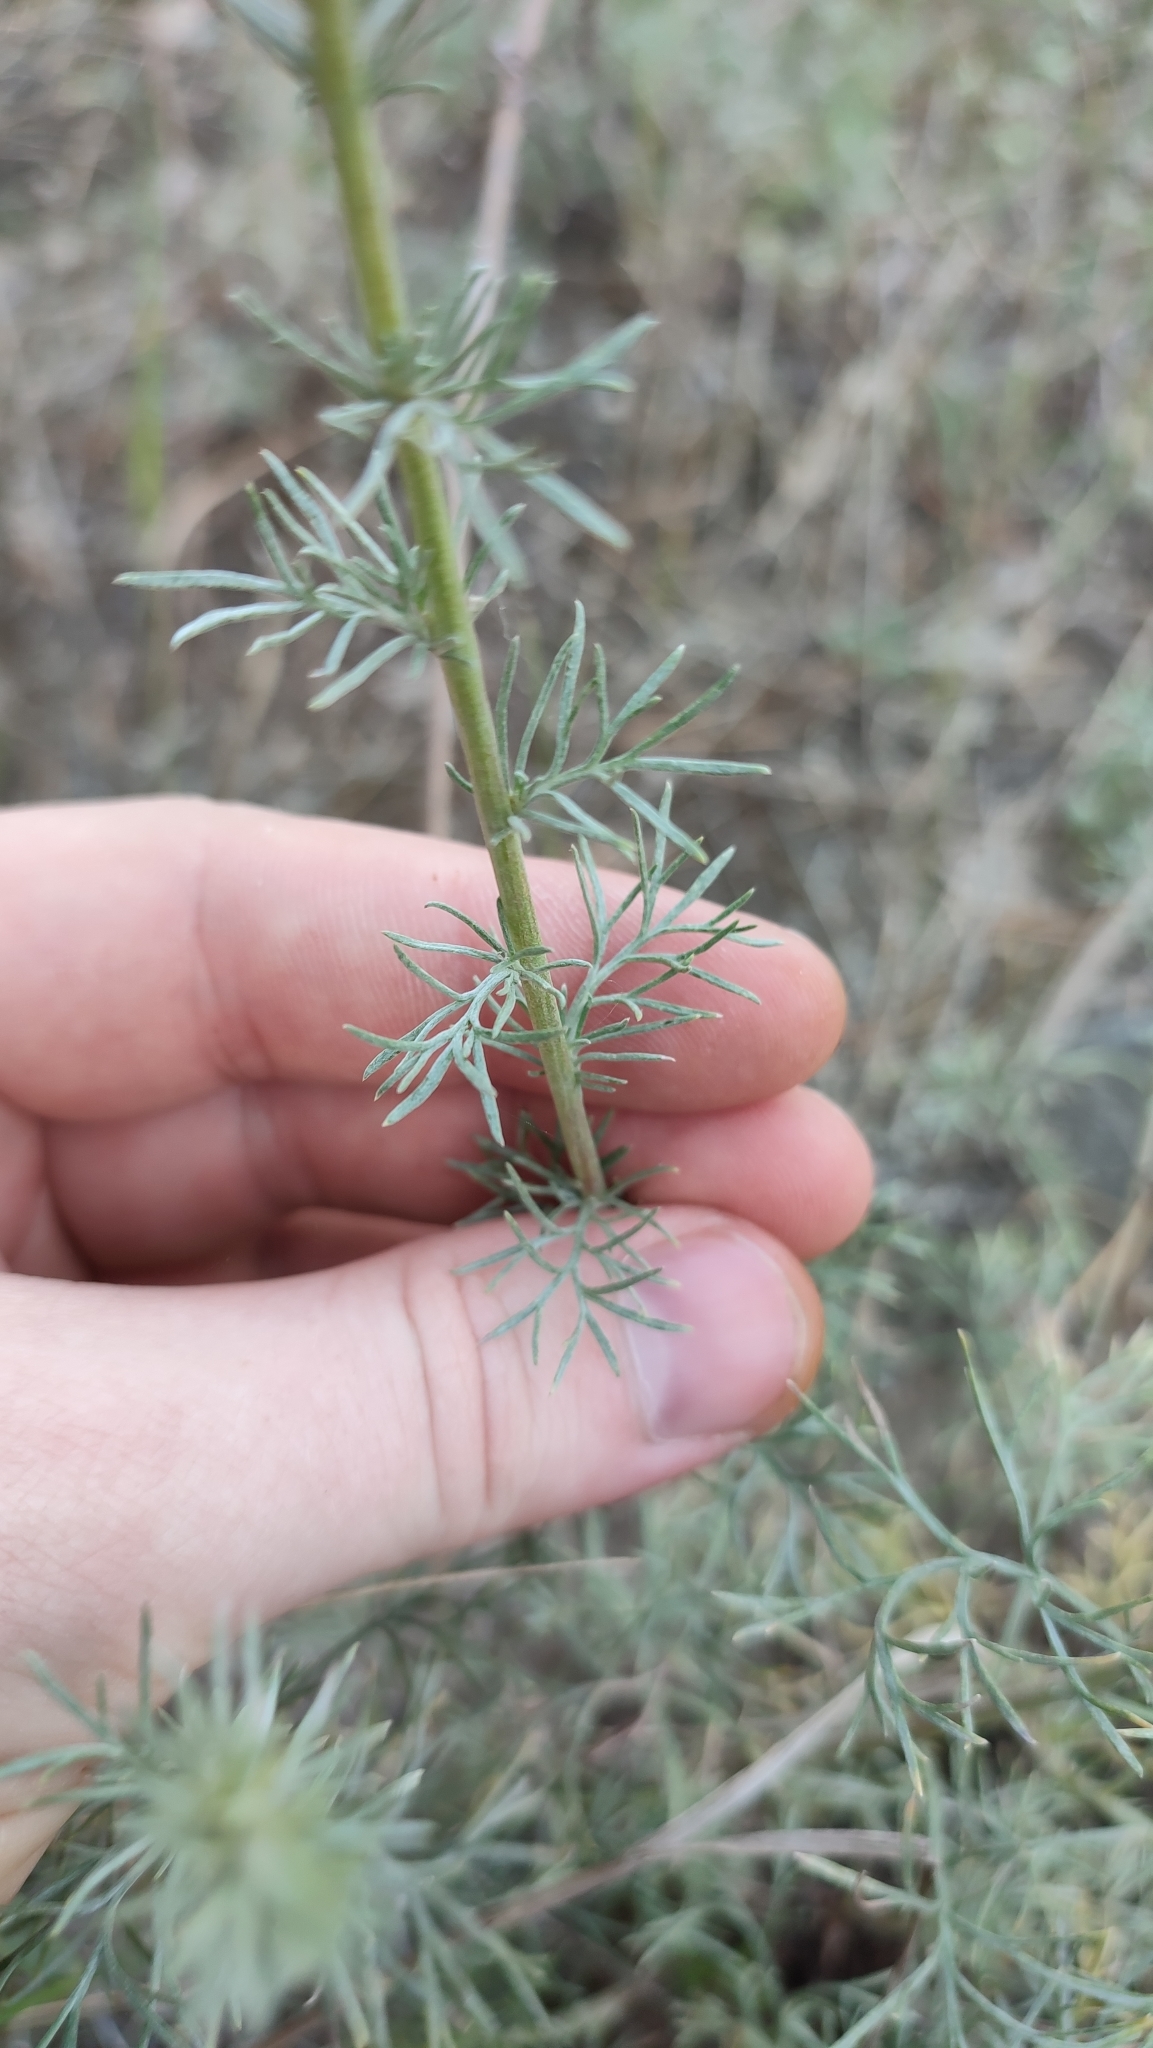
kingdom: Plantae
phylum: Tracheophyta
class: Magnoliopsida
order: Asterales
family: Asteraceae
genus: Artemisia
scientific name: Artemisia campestris
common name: Field wormwood
